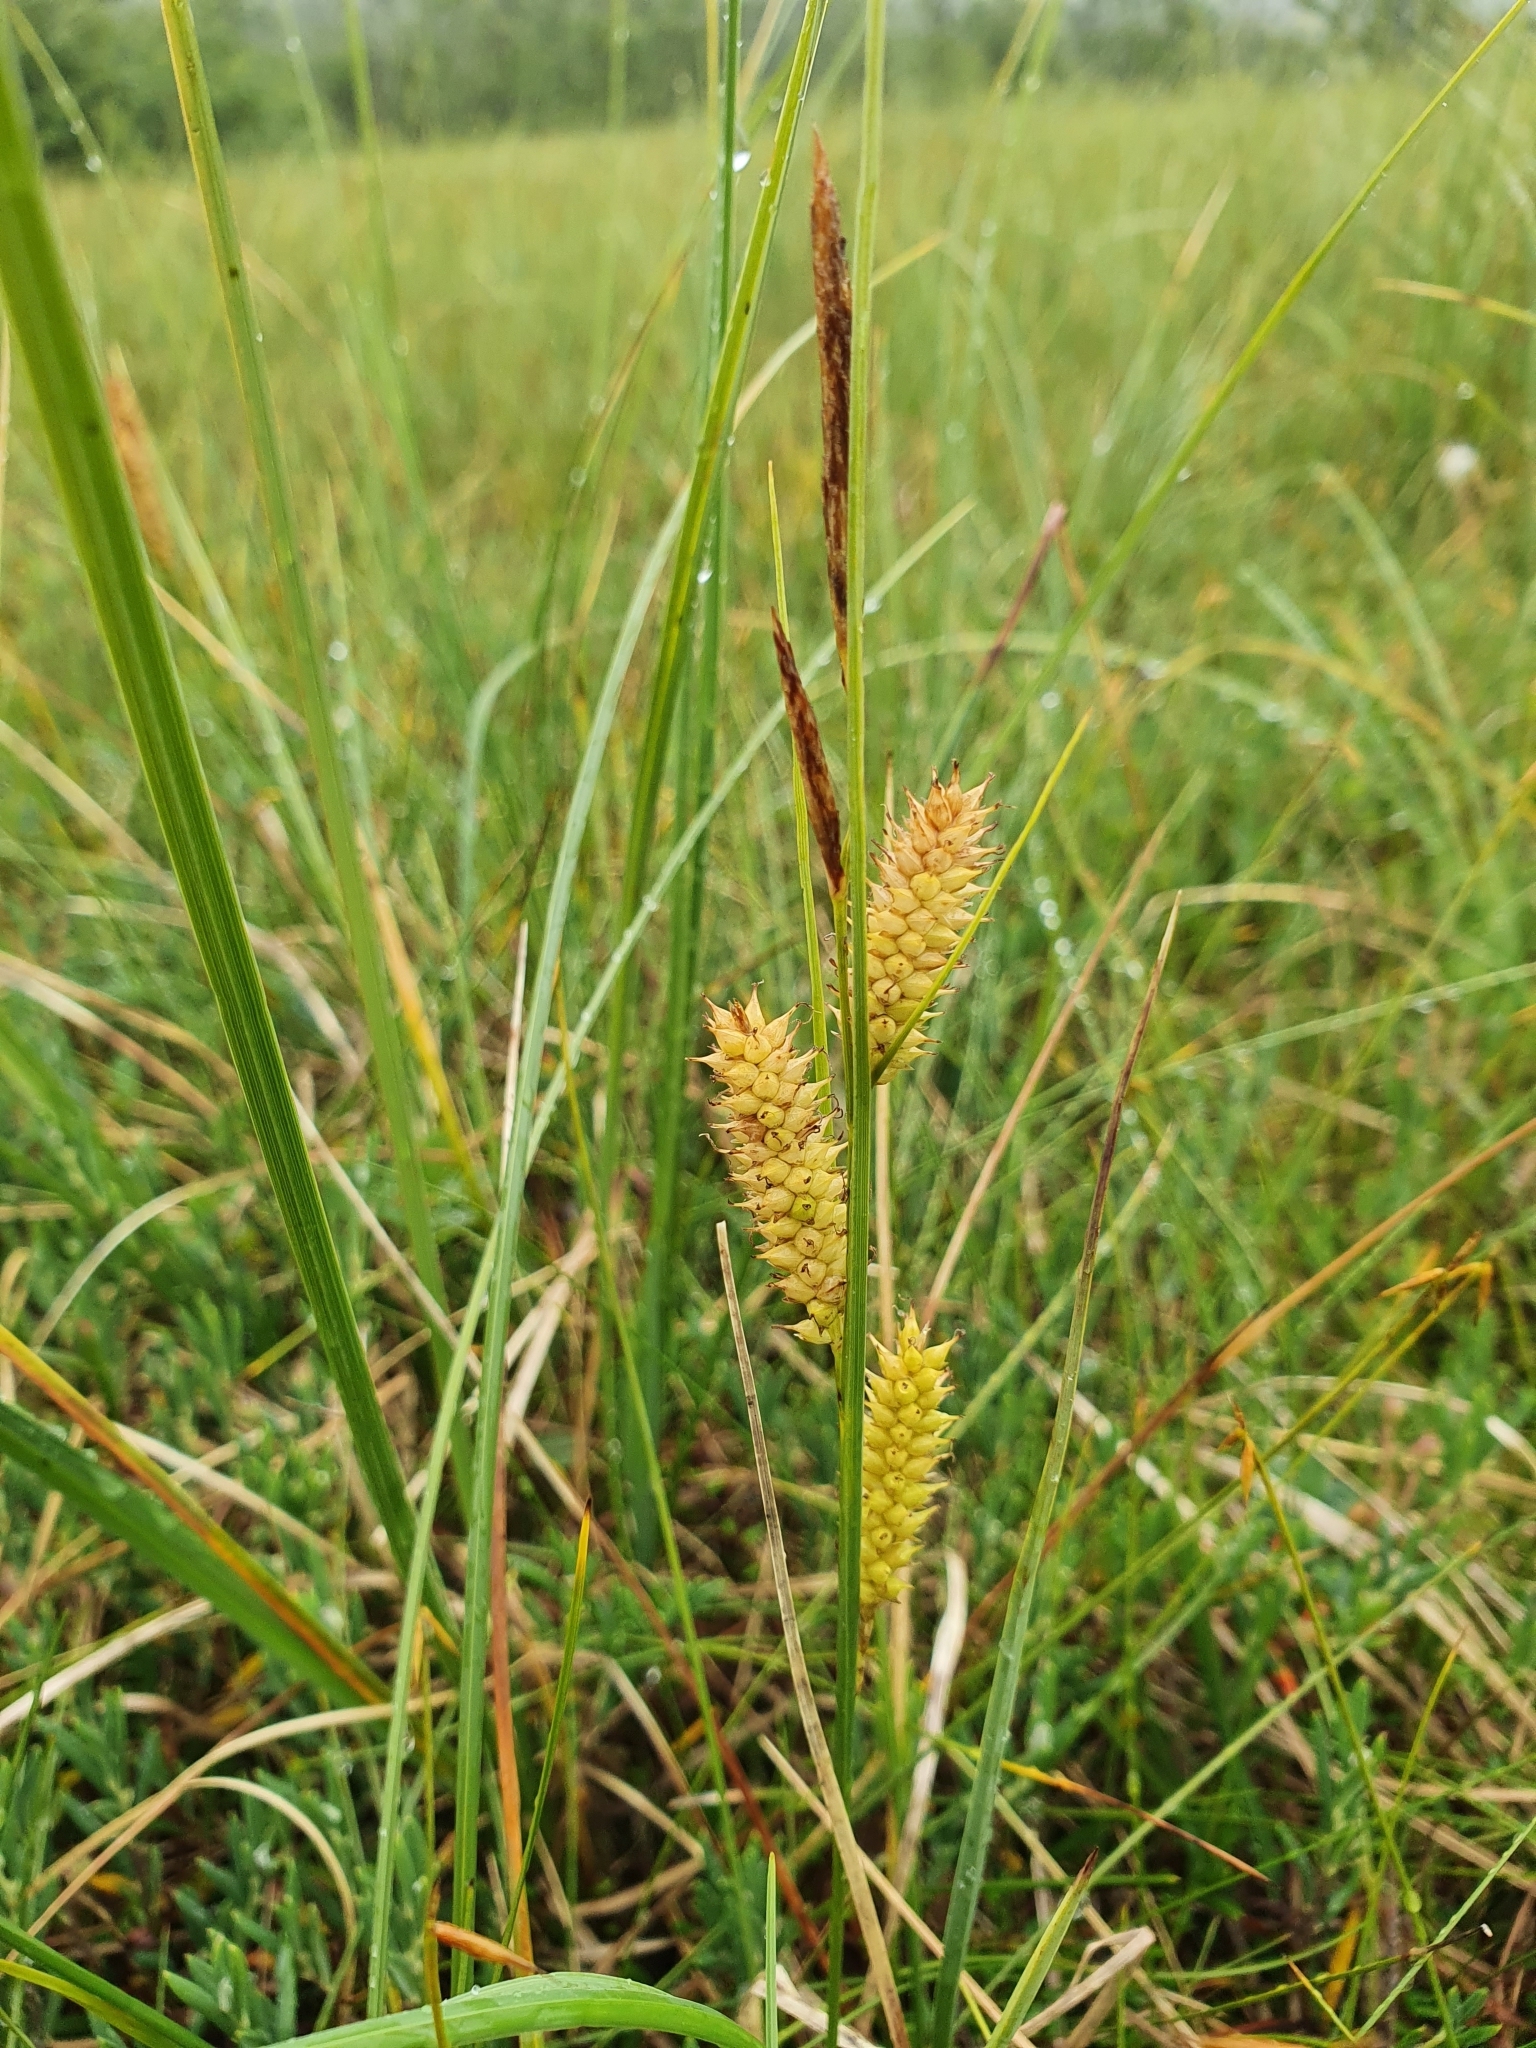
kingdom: Plantae
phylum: Tracheophyta
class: Liliopsida
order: Poales
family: Cyperaceae
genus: Carex
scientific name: Carex rostrata
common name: Bottle sedge
